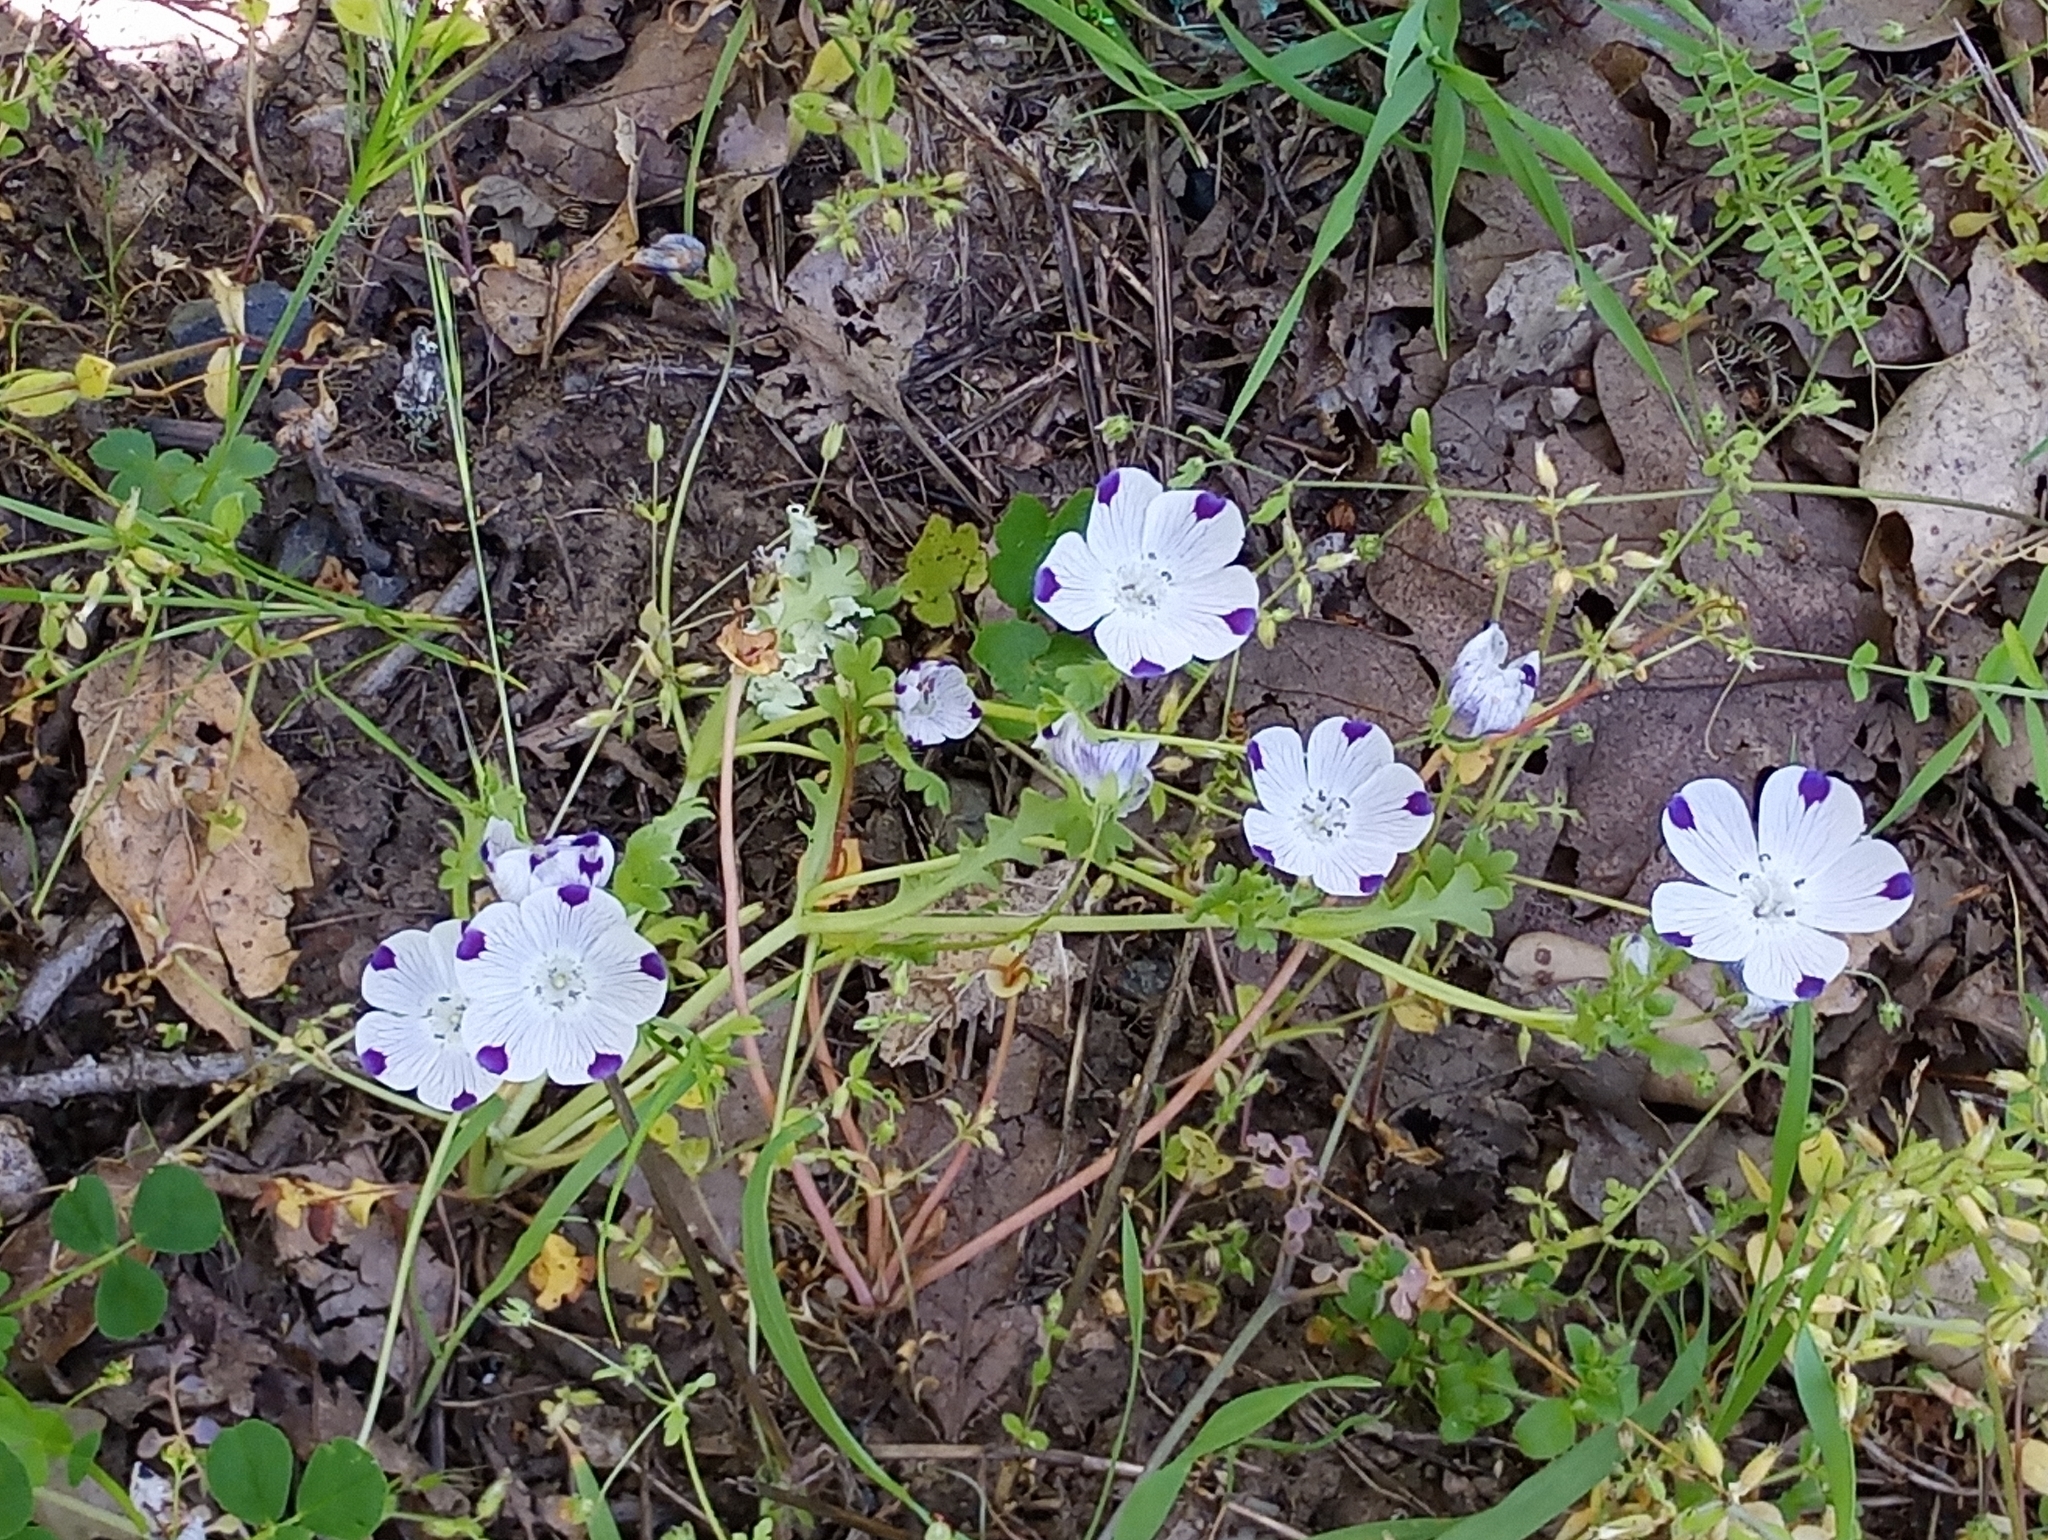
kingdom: Plantae
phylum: Tracheophyta
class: Magnoliopsida
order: Boraginales
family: Hydrophyllaceae
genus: Nemophila
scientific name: Nemophila maculata
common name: Fivespot
